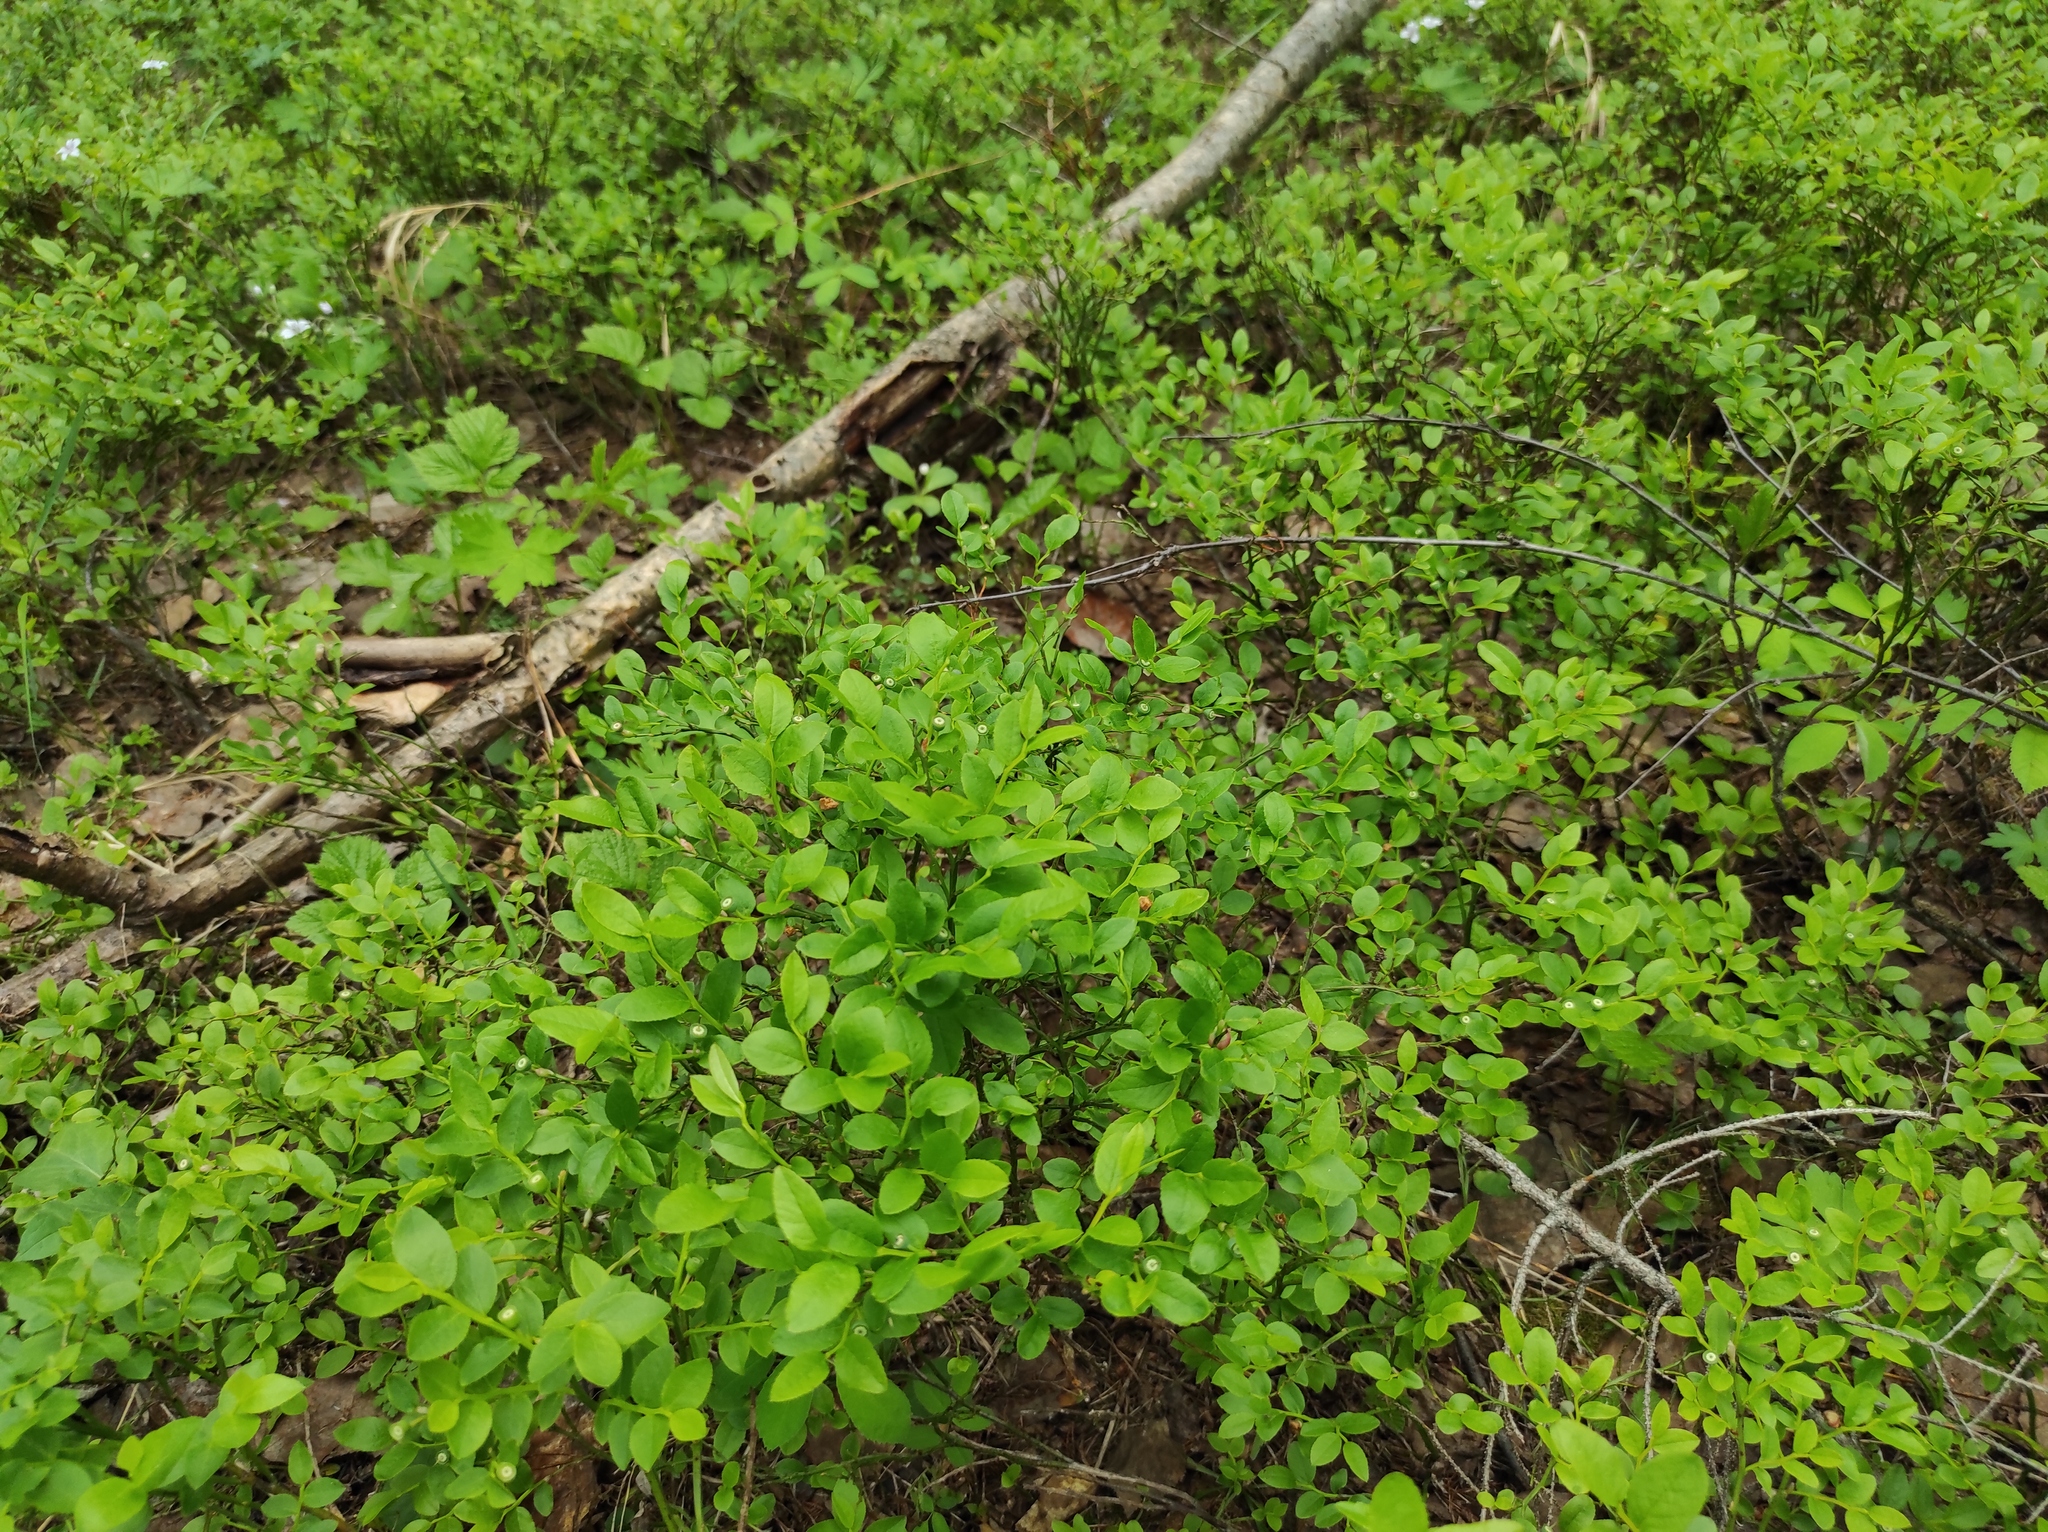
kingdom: Plantae
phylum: Tracheophyta
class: Magnoliopsida
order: Ericales
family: Ericaceae
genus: Vaccinium
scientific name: Vaccinium myrtillus
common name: Bilberry
